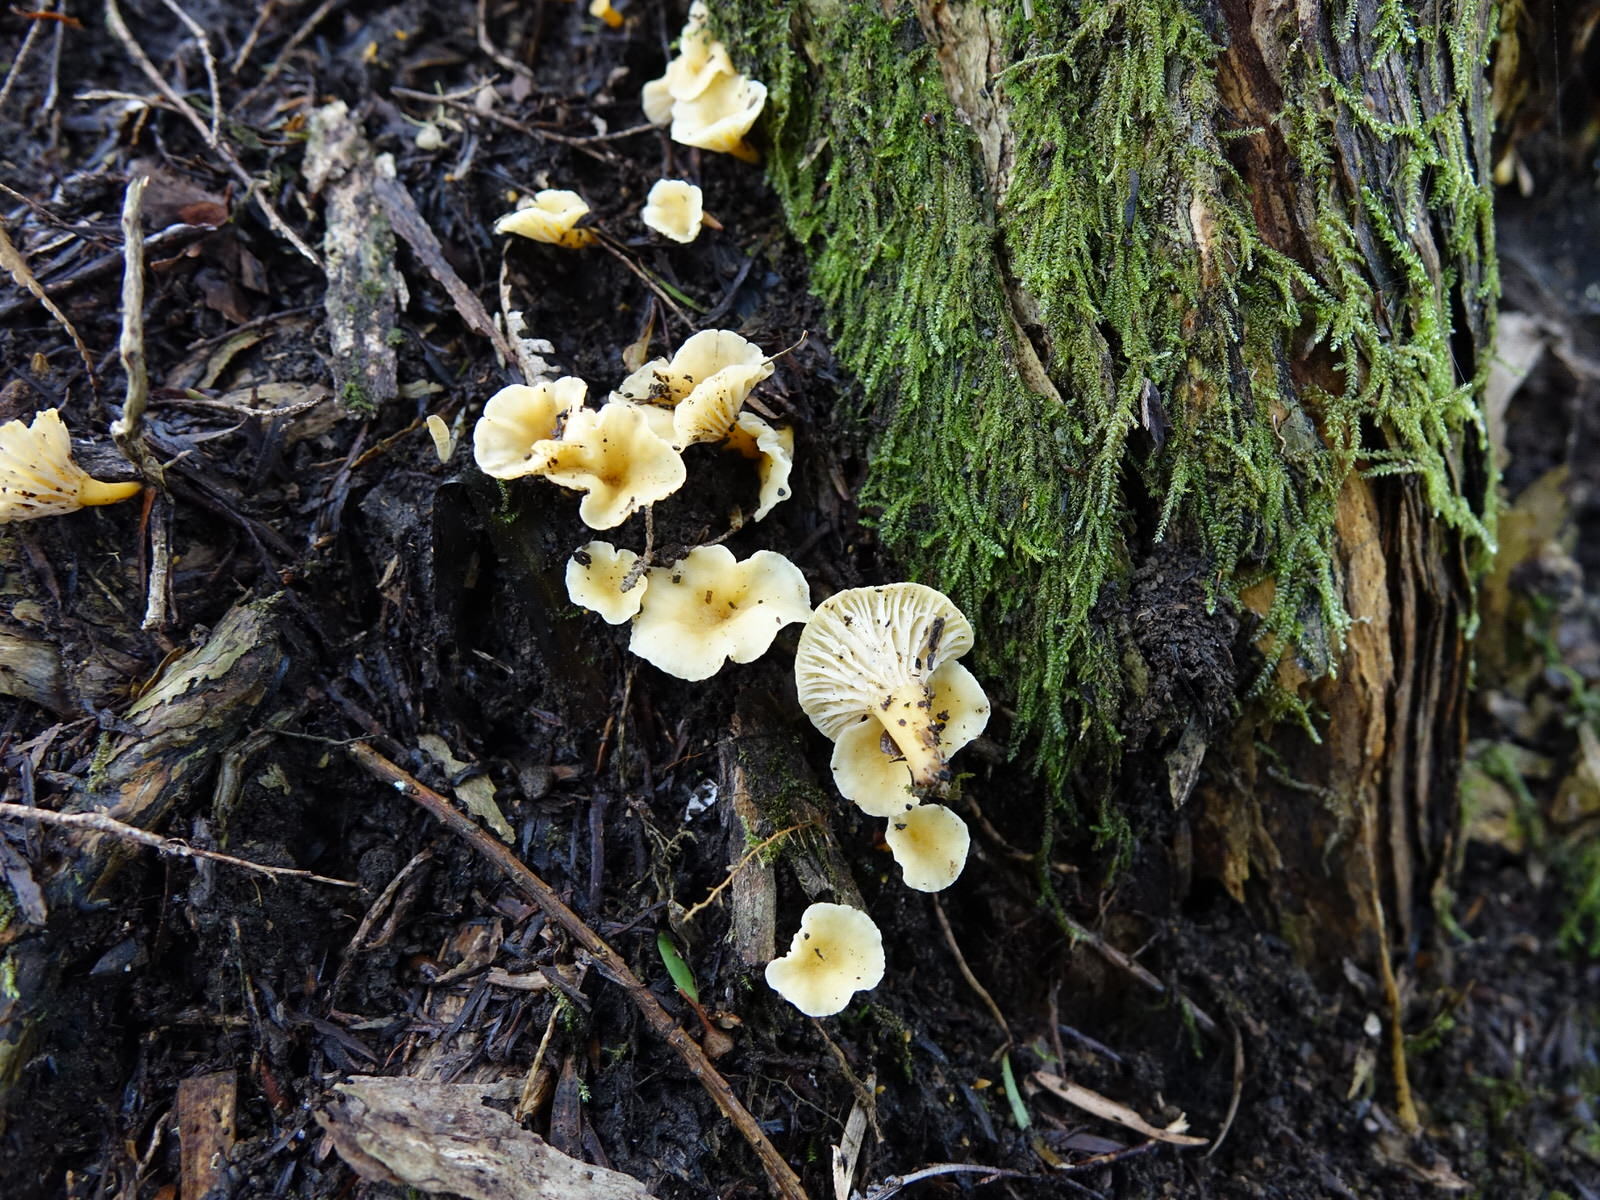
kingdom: Fungi
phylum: Basidiomycota
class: Agaricomycetes
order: Cantharellales
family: Hydnaceae
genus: Cantharellus
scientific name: Cantharellus wellingtonensis
